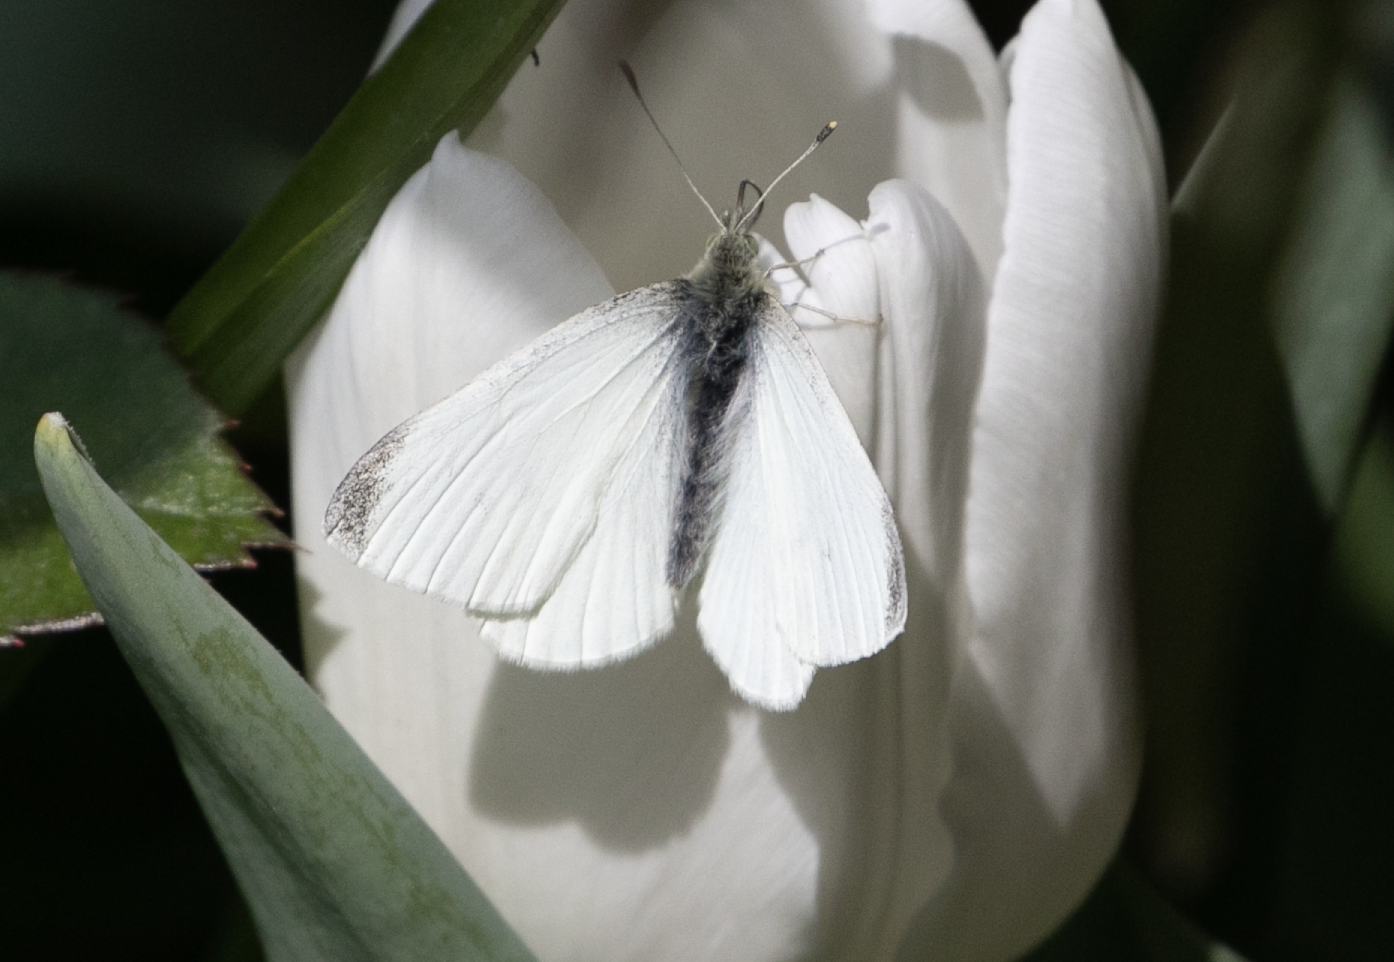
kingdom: Animalia
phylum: Arthropoda
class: Insecta
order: Lepidoptera
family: Pieridae
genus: Pieris
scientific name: Pieris rapae
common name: Small white
